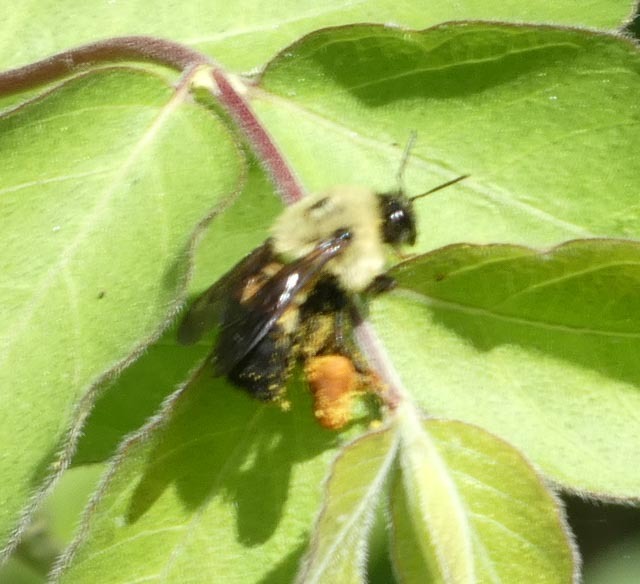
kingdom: Animalia
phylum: Arthropoda
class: Insecta
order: Hymenoptera
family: Apidae
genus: Bombus
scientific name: Bombus griseocollis
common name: Brown-belted bumble bee
